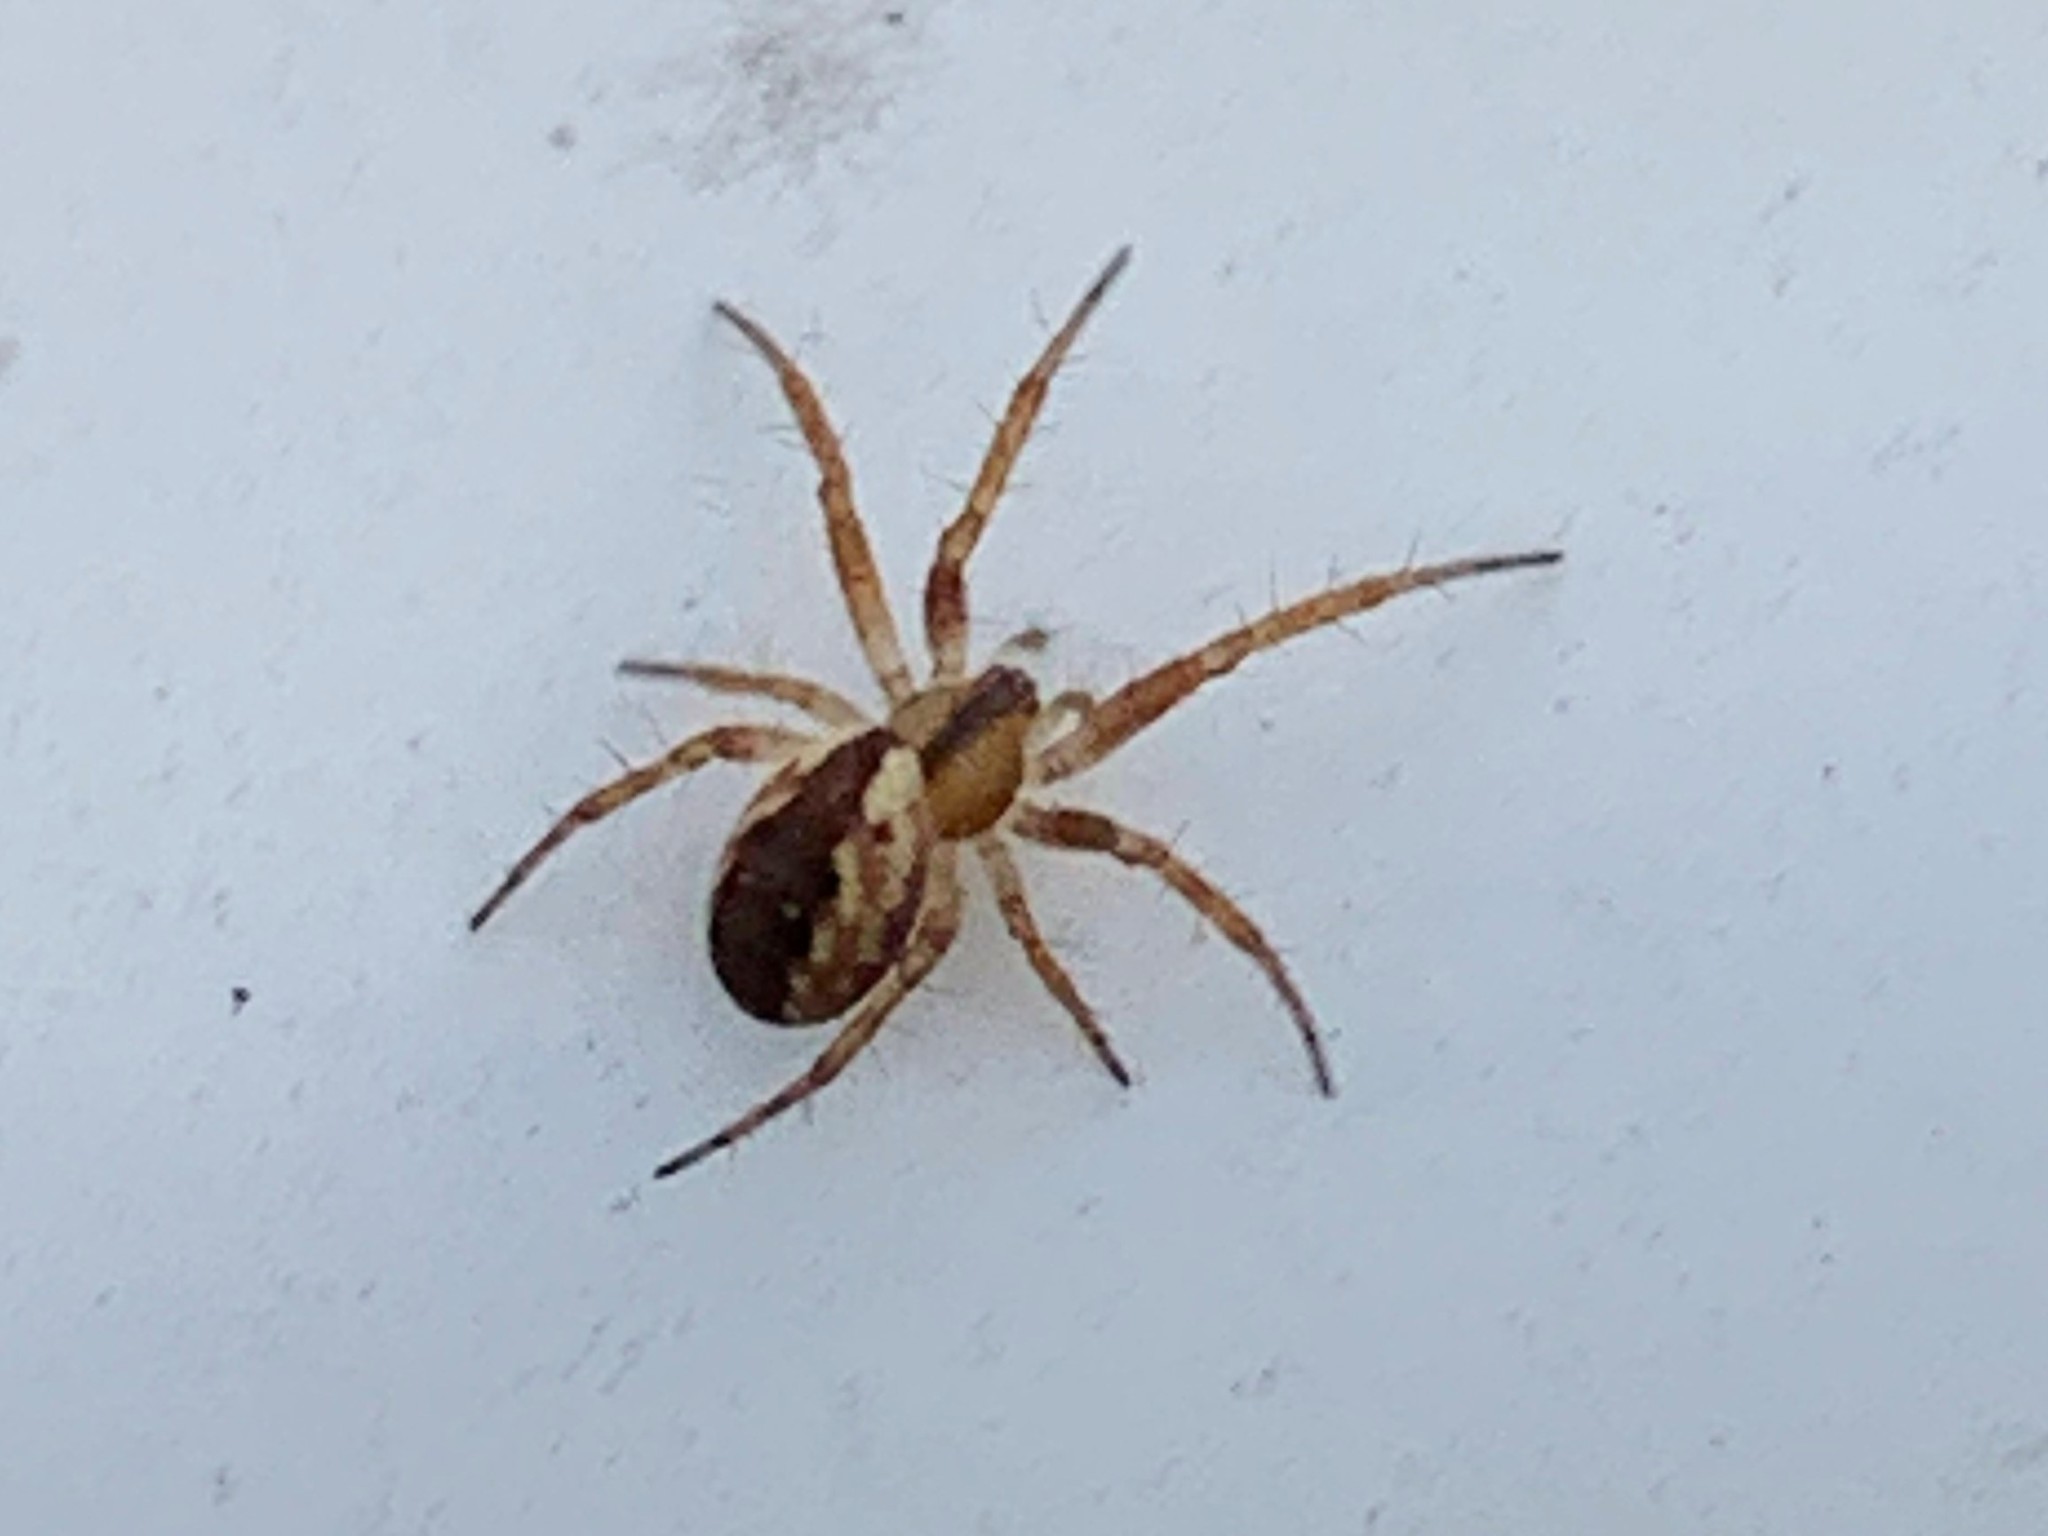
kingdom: Animalia
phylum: Arthropoda
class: Arachnida
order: Araneae
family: Araneidae
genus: Mangora
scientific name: Mangora placida
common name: Tuft-legged orbweaver
